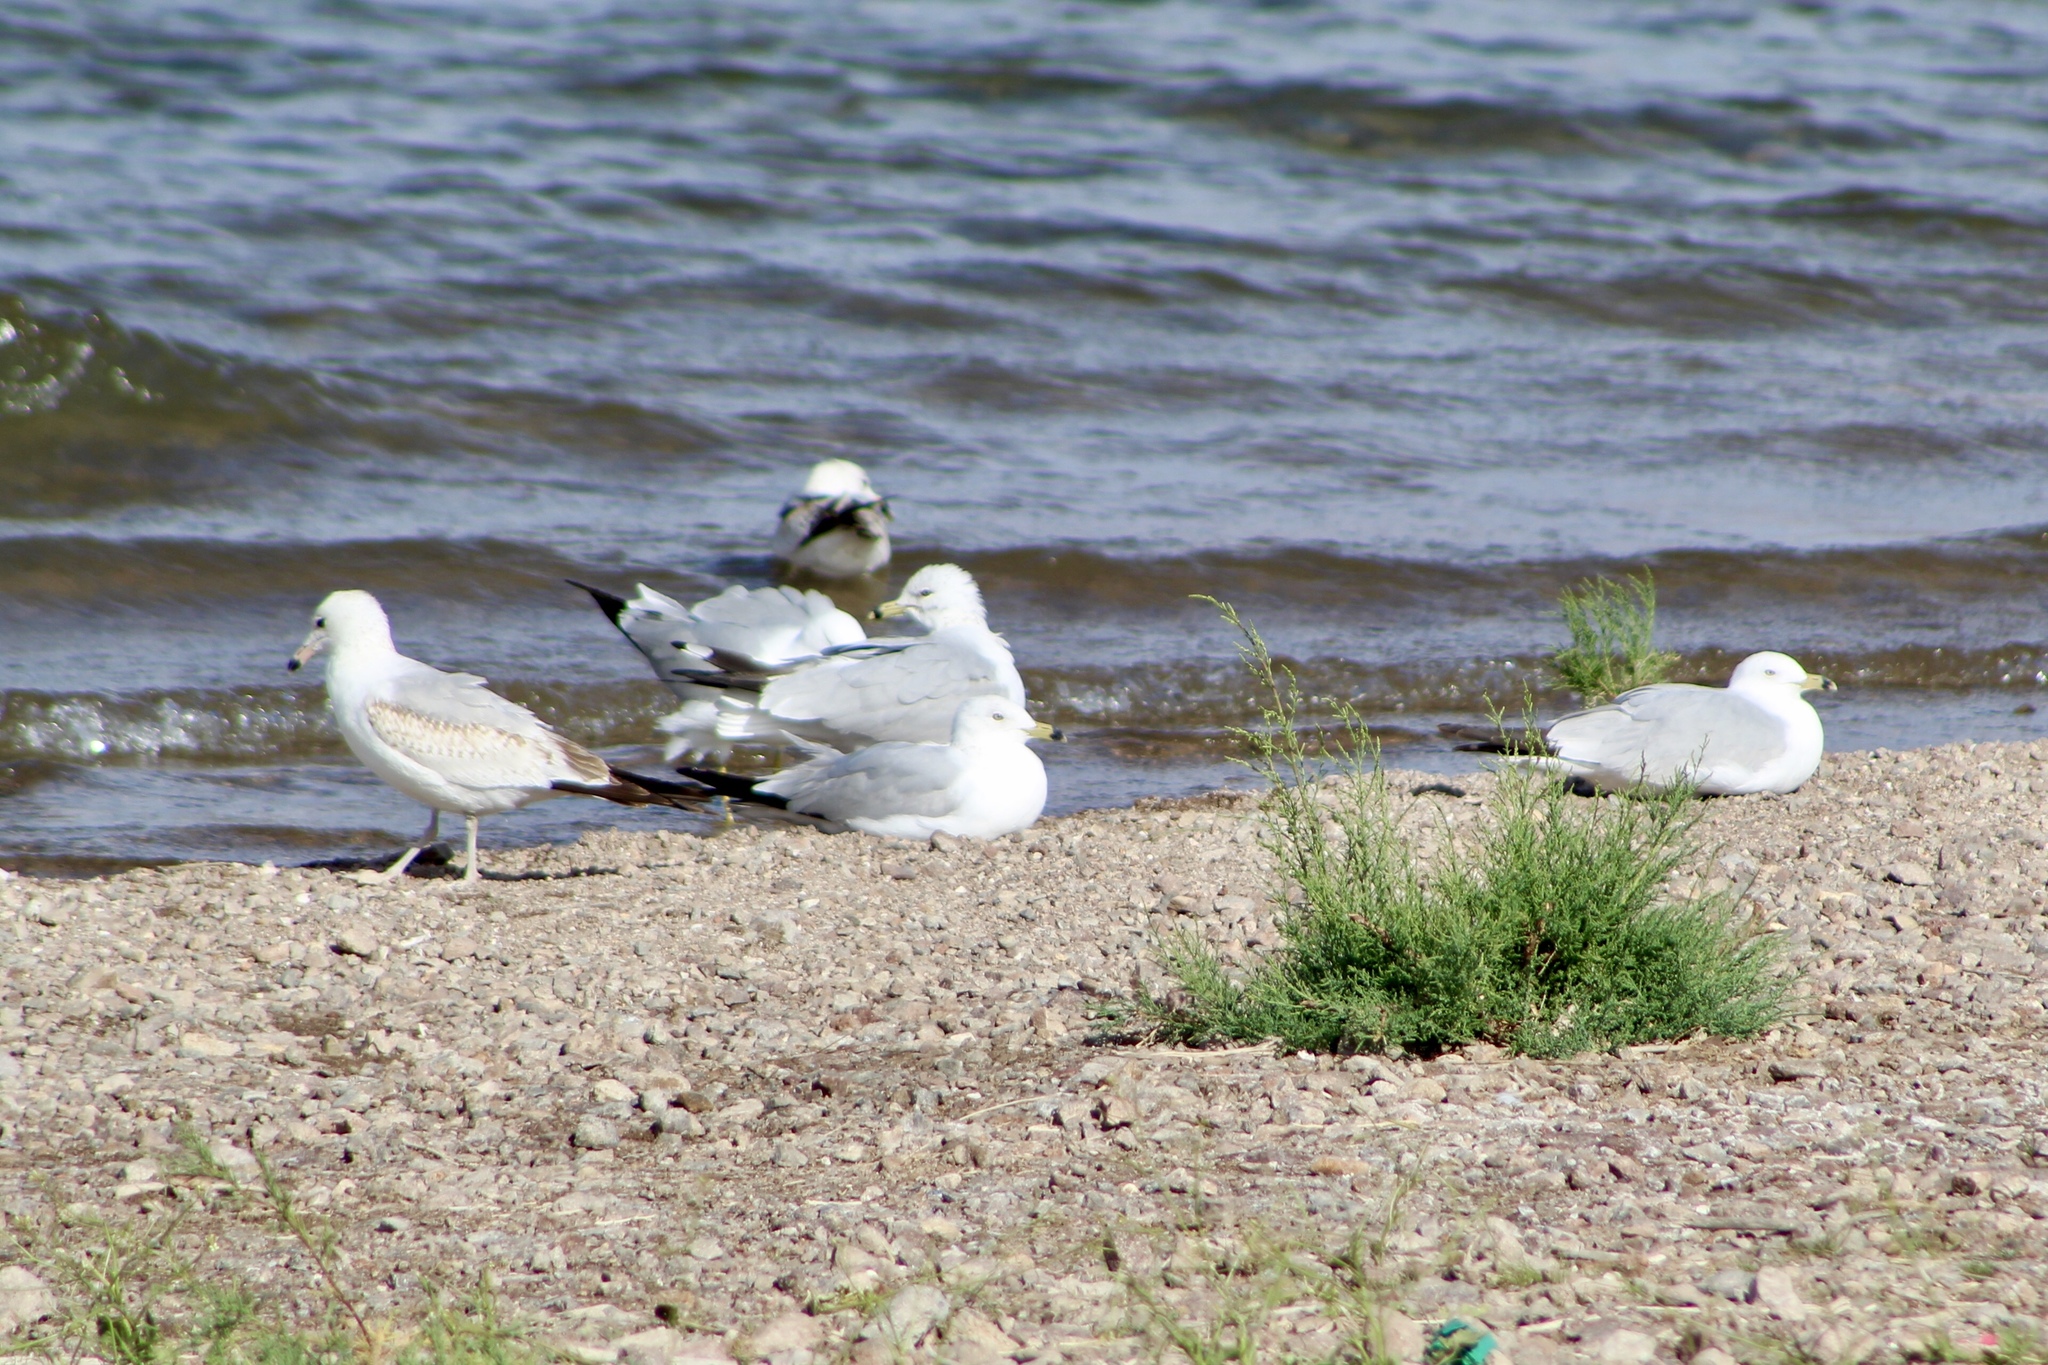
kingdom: Animalia
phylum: Chordata
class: Aves
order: Charadriiformes
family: Laridae
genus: Larus
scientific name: Larus delawarensis
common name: Ring-billed gull
